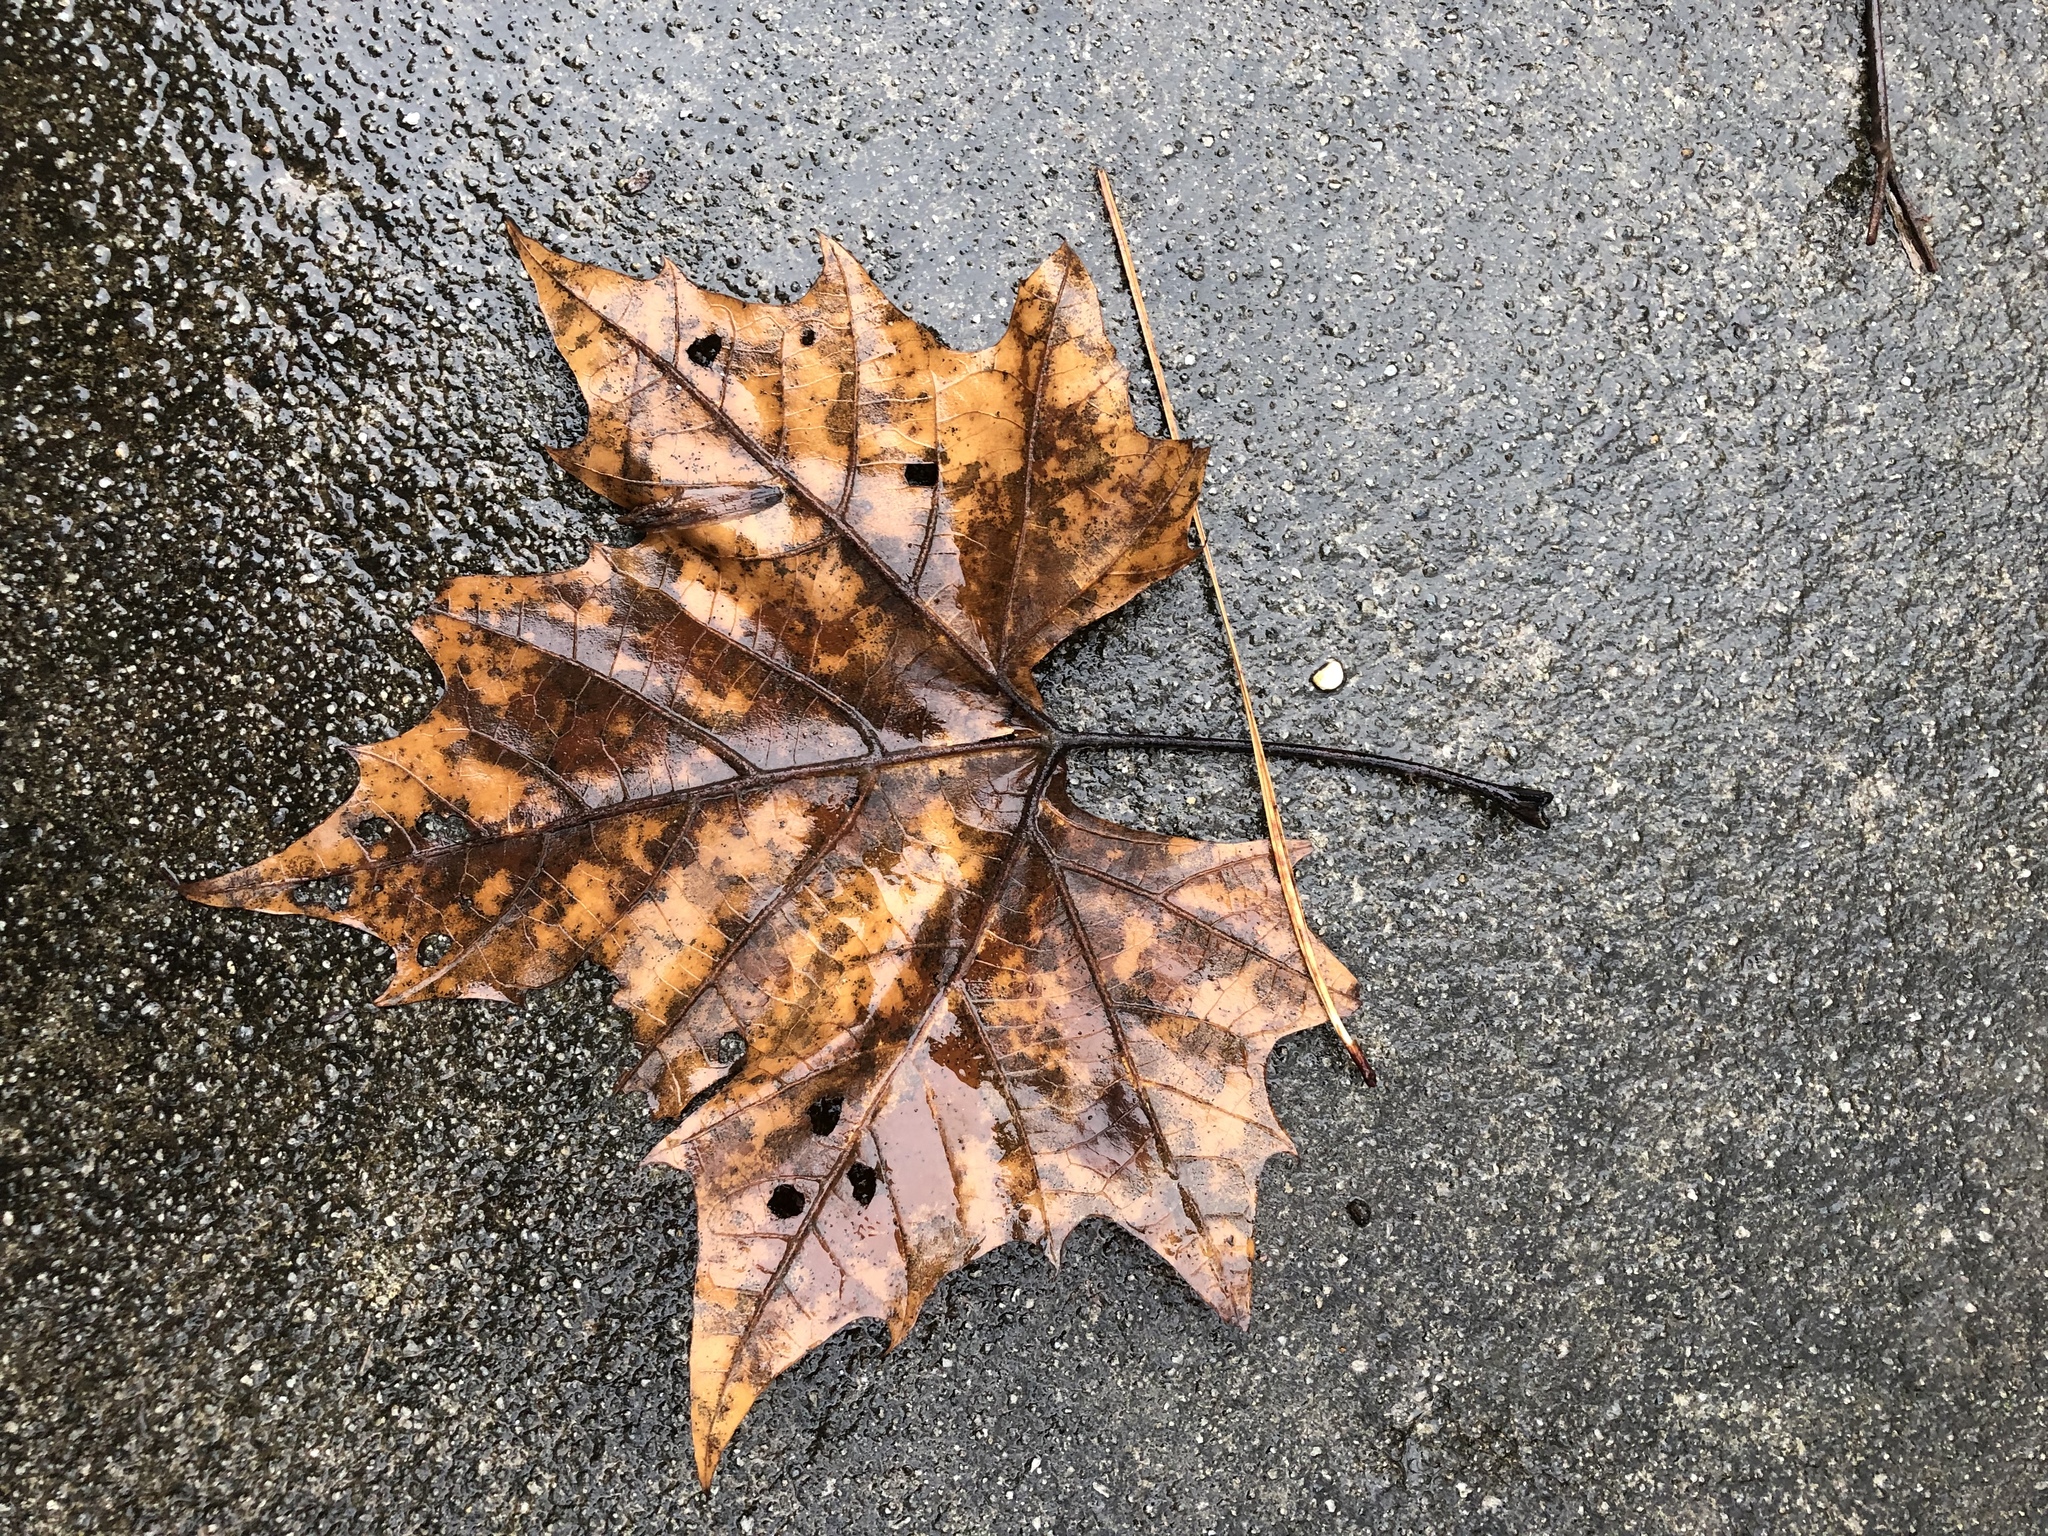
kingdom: Plantae
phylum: Tracheophyta
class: Magnoliopsida
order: Proteales
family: Platanaceae
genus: Platanus
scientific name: Platanus occidentalis
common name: American sycamore
